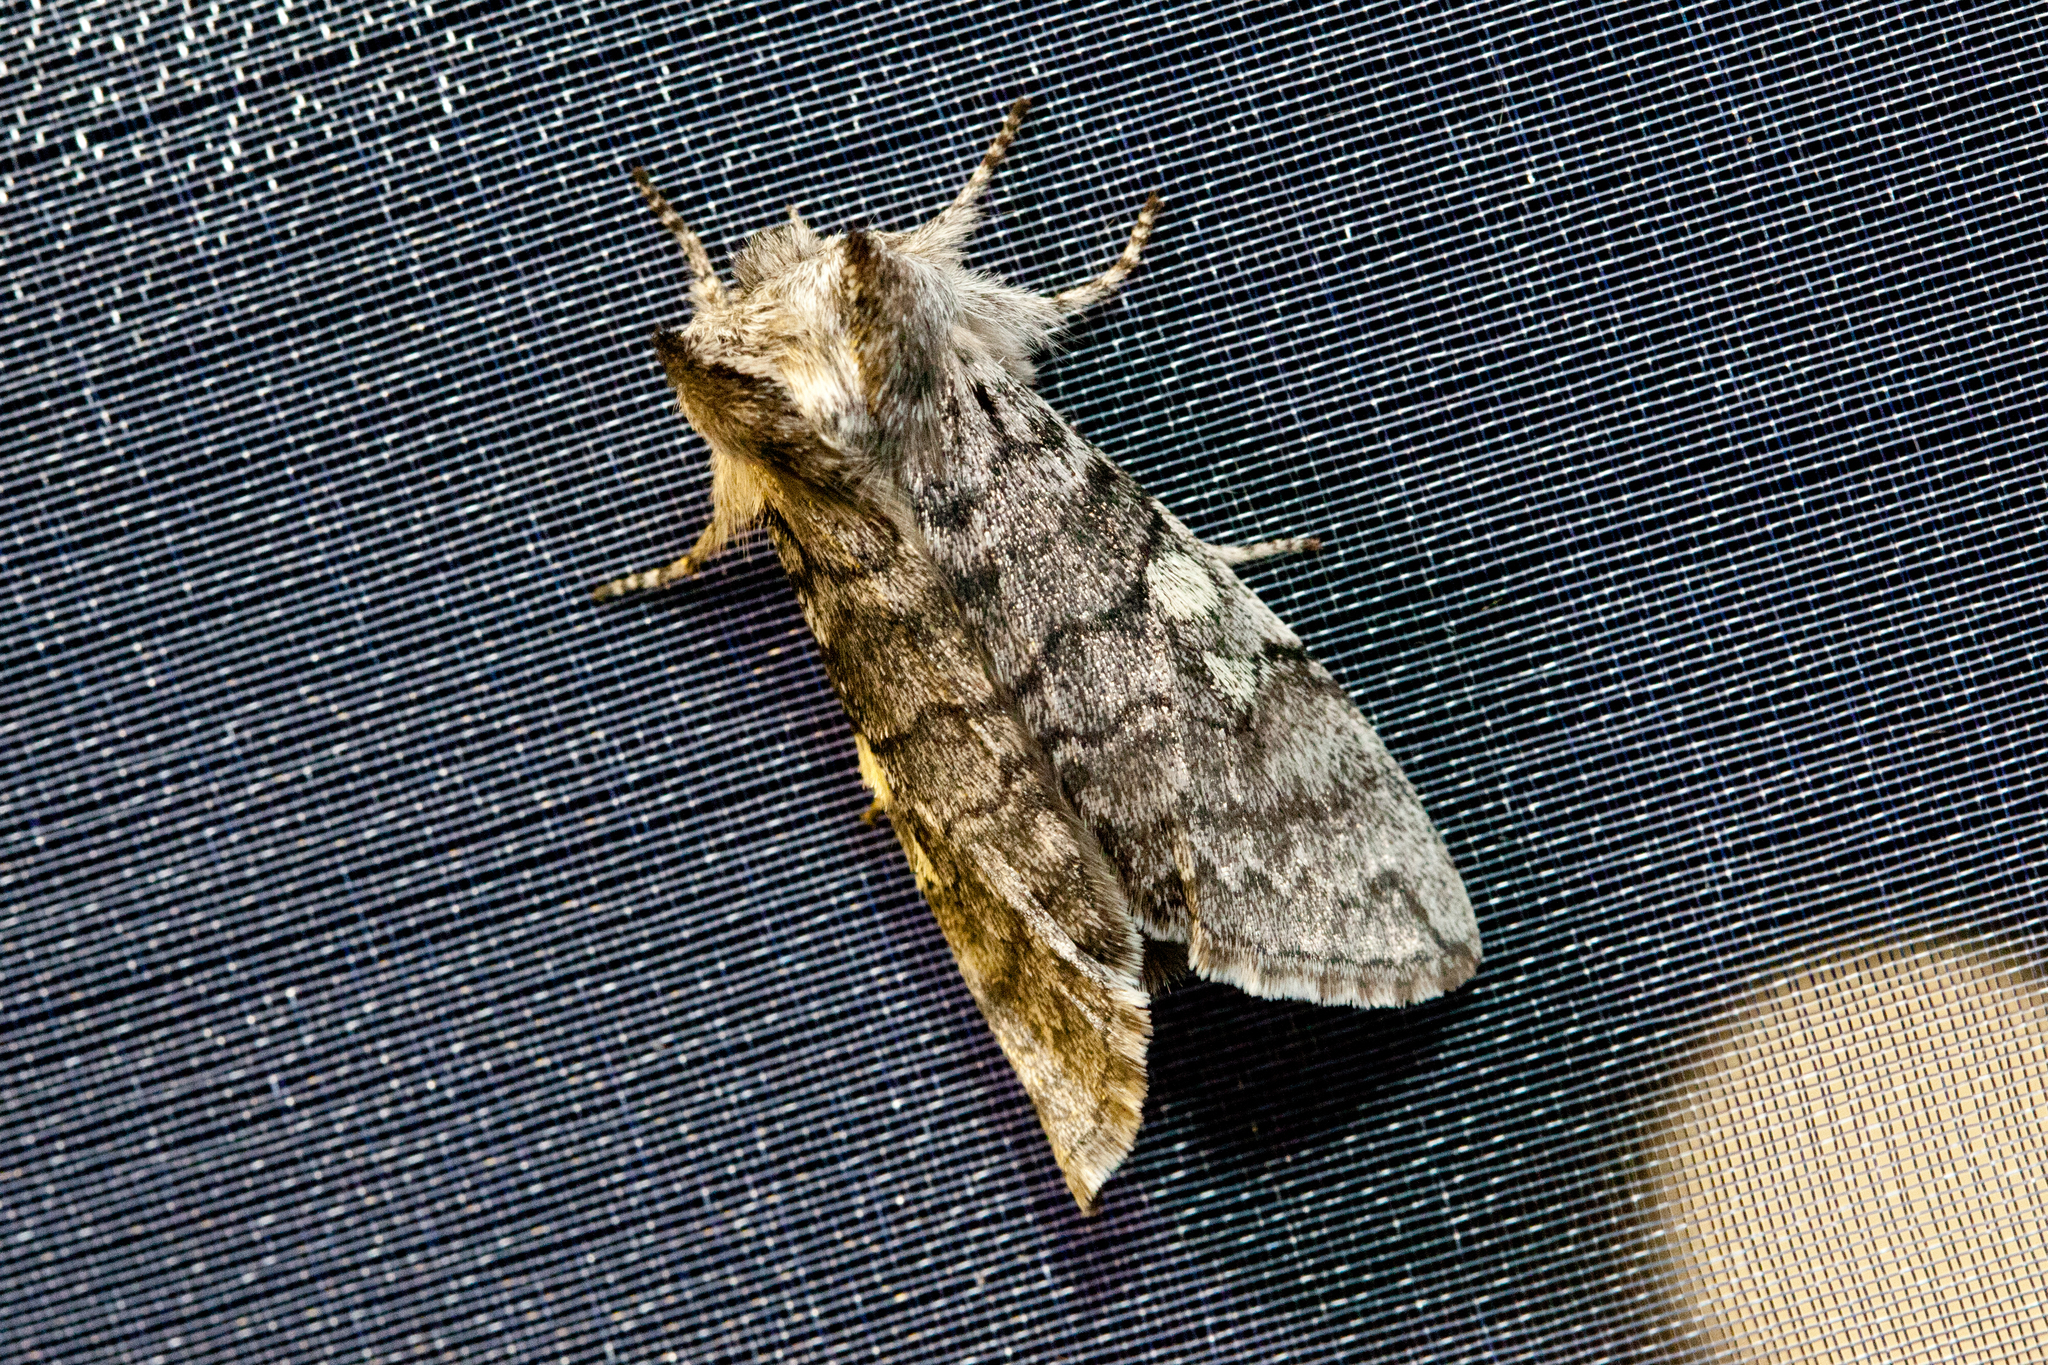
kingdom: Animalia
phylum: Arthropoda
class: Insecta
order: Lepidoptera
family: Drepanidae
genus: Achlya
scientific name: Achlya flavicornis
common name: Yellow horned
